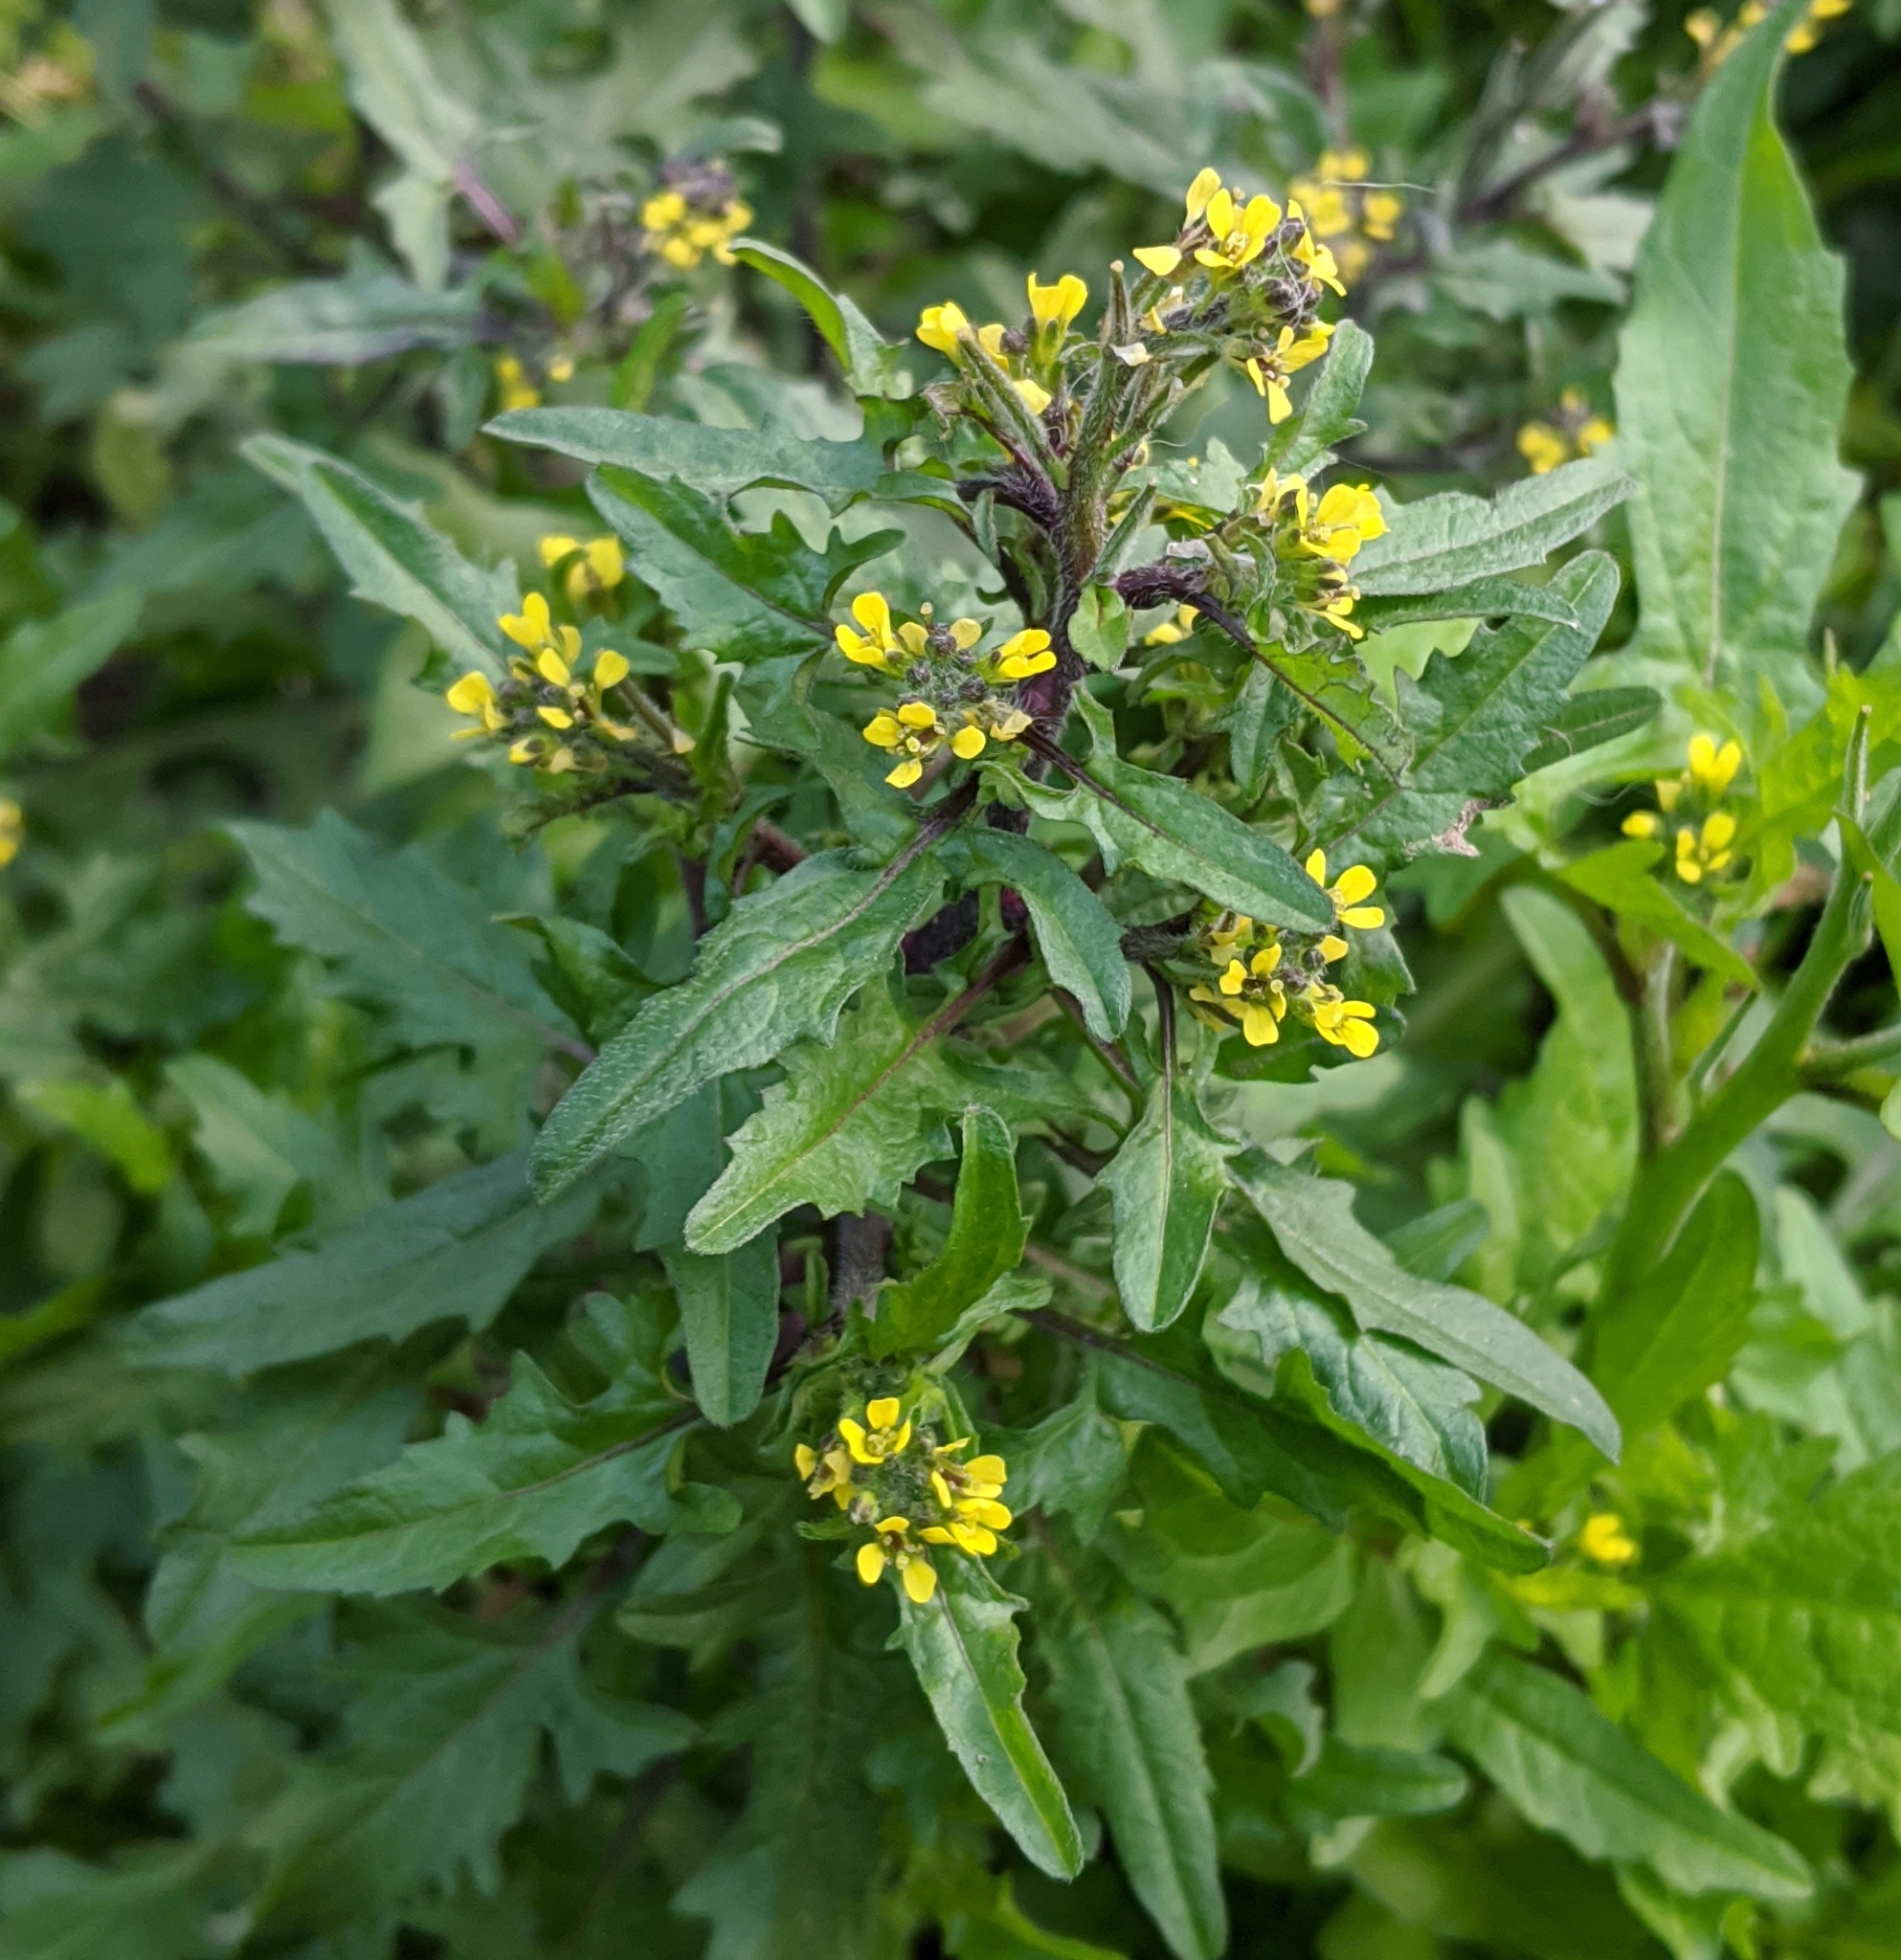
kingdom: Plantae
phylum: Tracheophyta
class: Magnoliopsida
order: Brassicales
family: Brassicaceae
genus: Sisymbrium
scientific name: Sisymbrium officinale
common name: Hedge mustard
